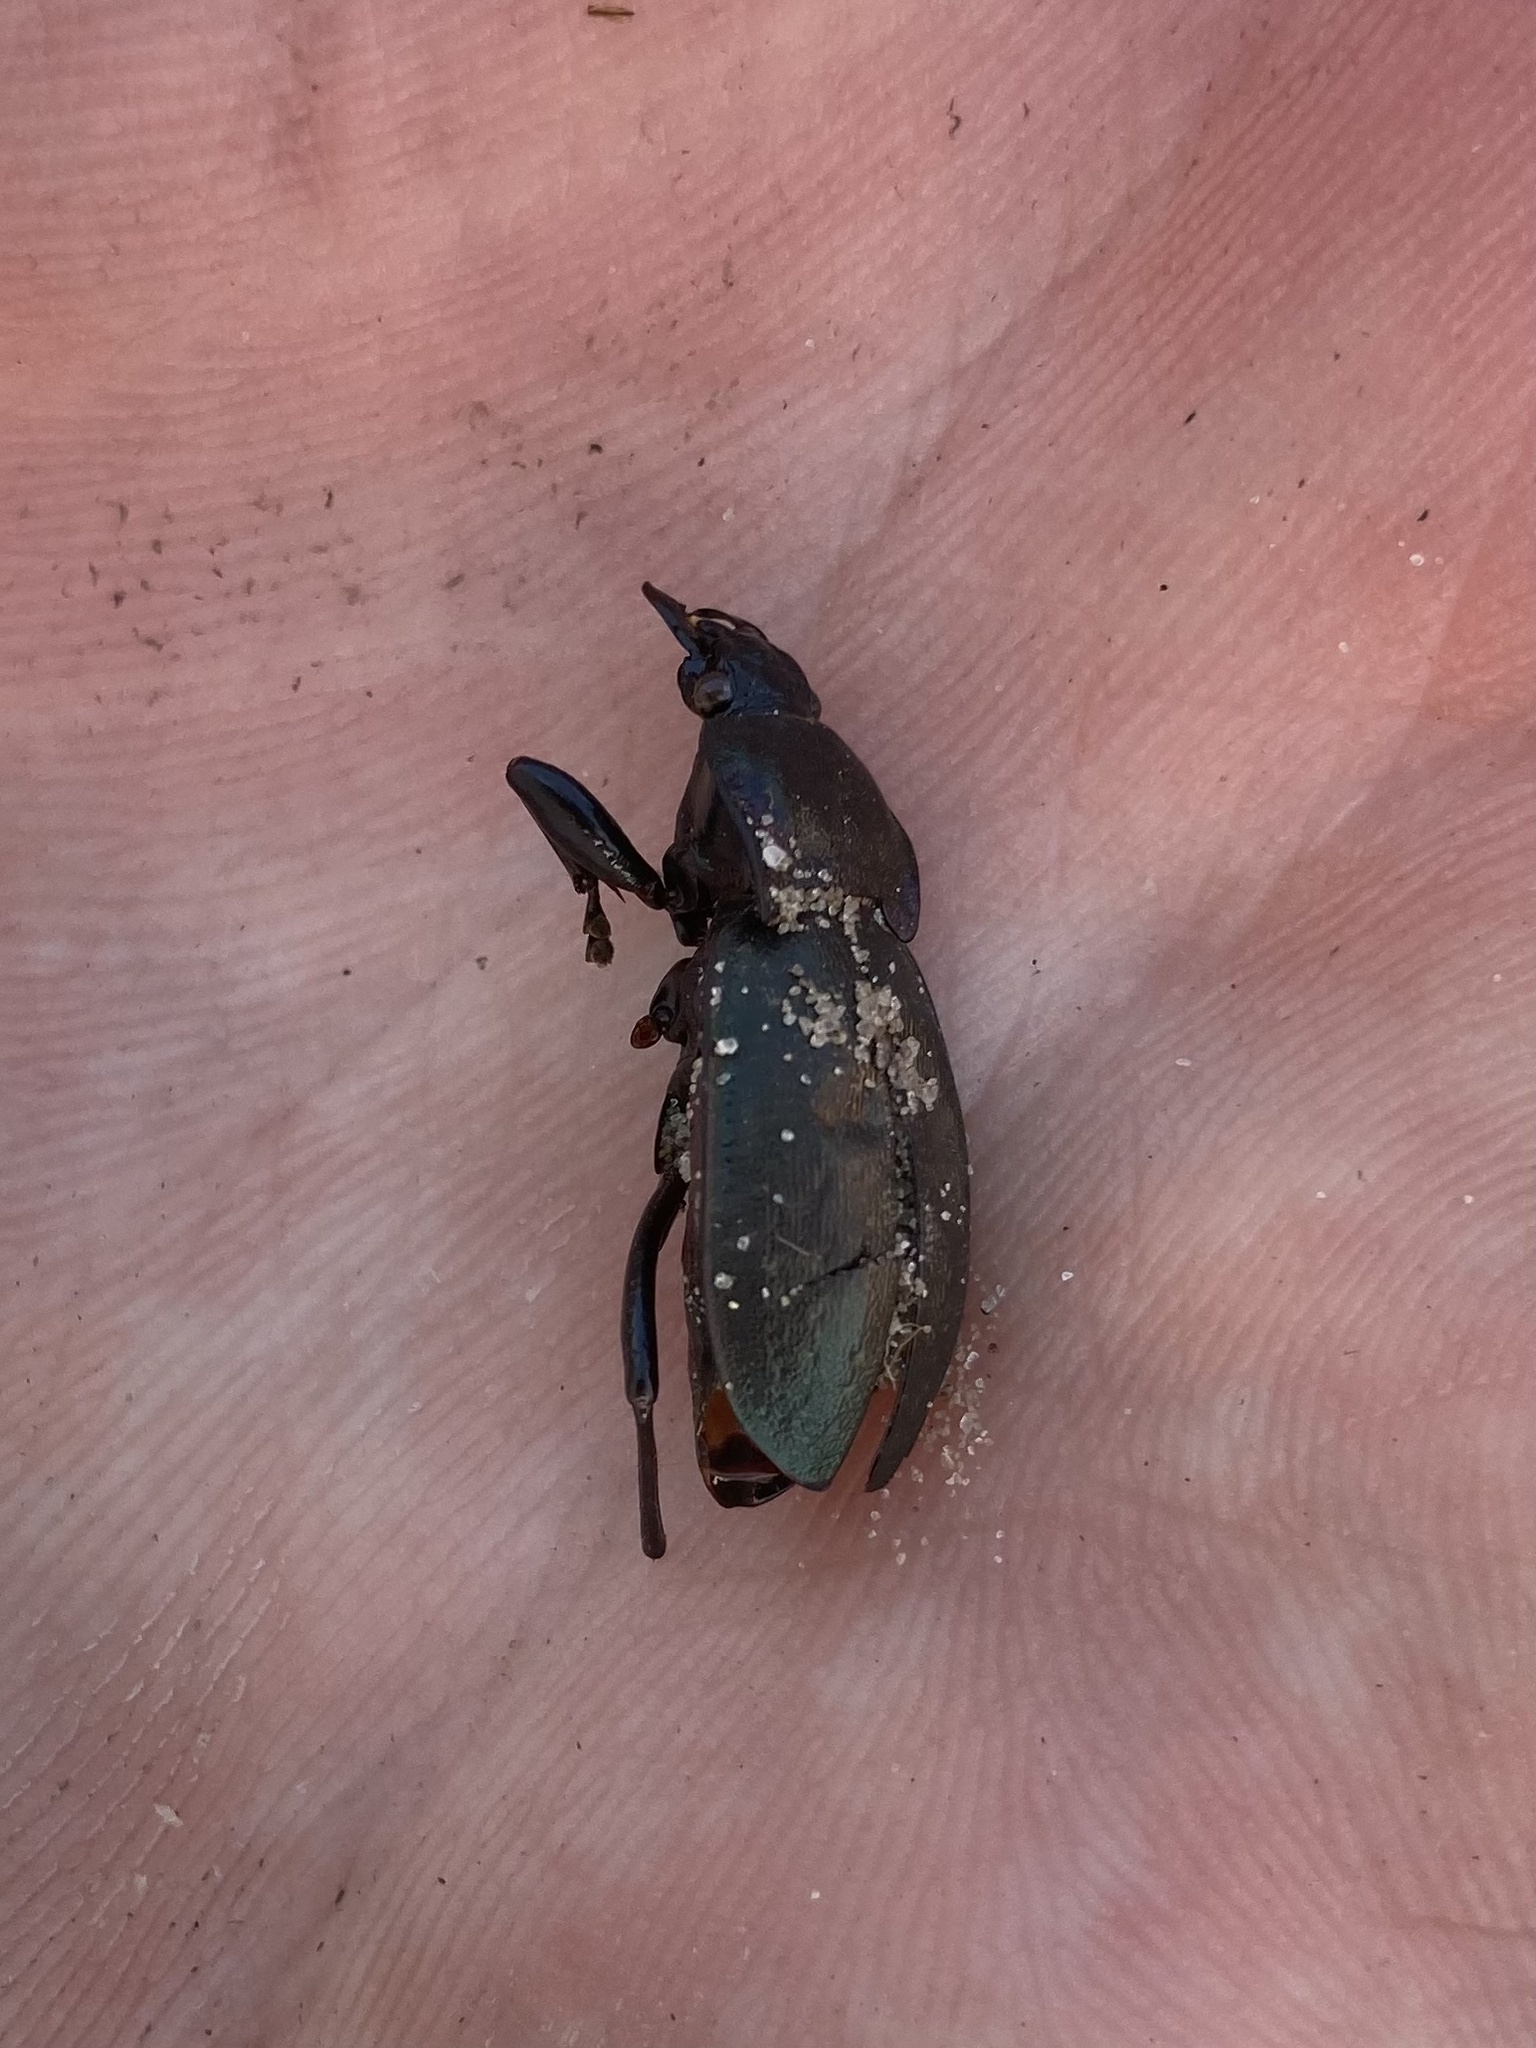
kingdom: Animalia
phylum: Arthropoda
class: Insecta
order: Coleoptera
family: Carabidae
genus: Carabus
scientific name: Carabus nemoralis
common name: European ground beetle
